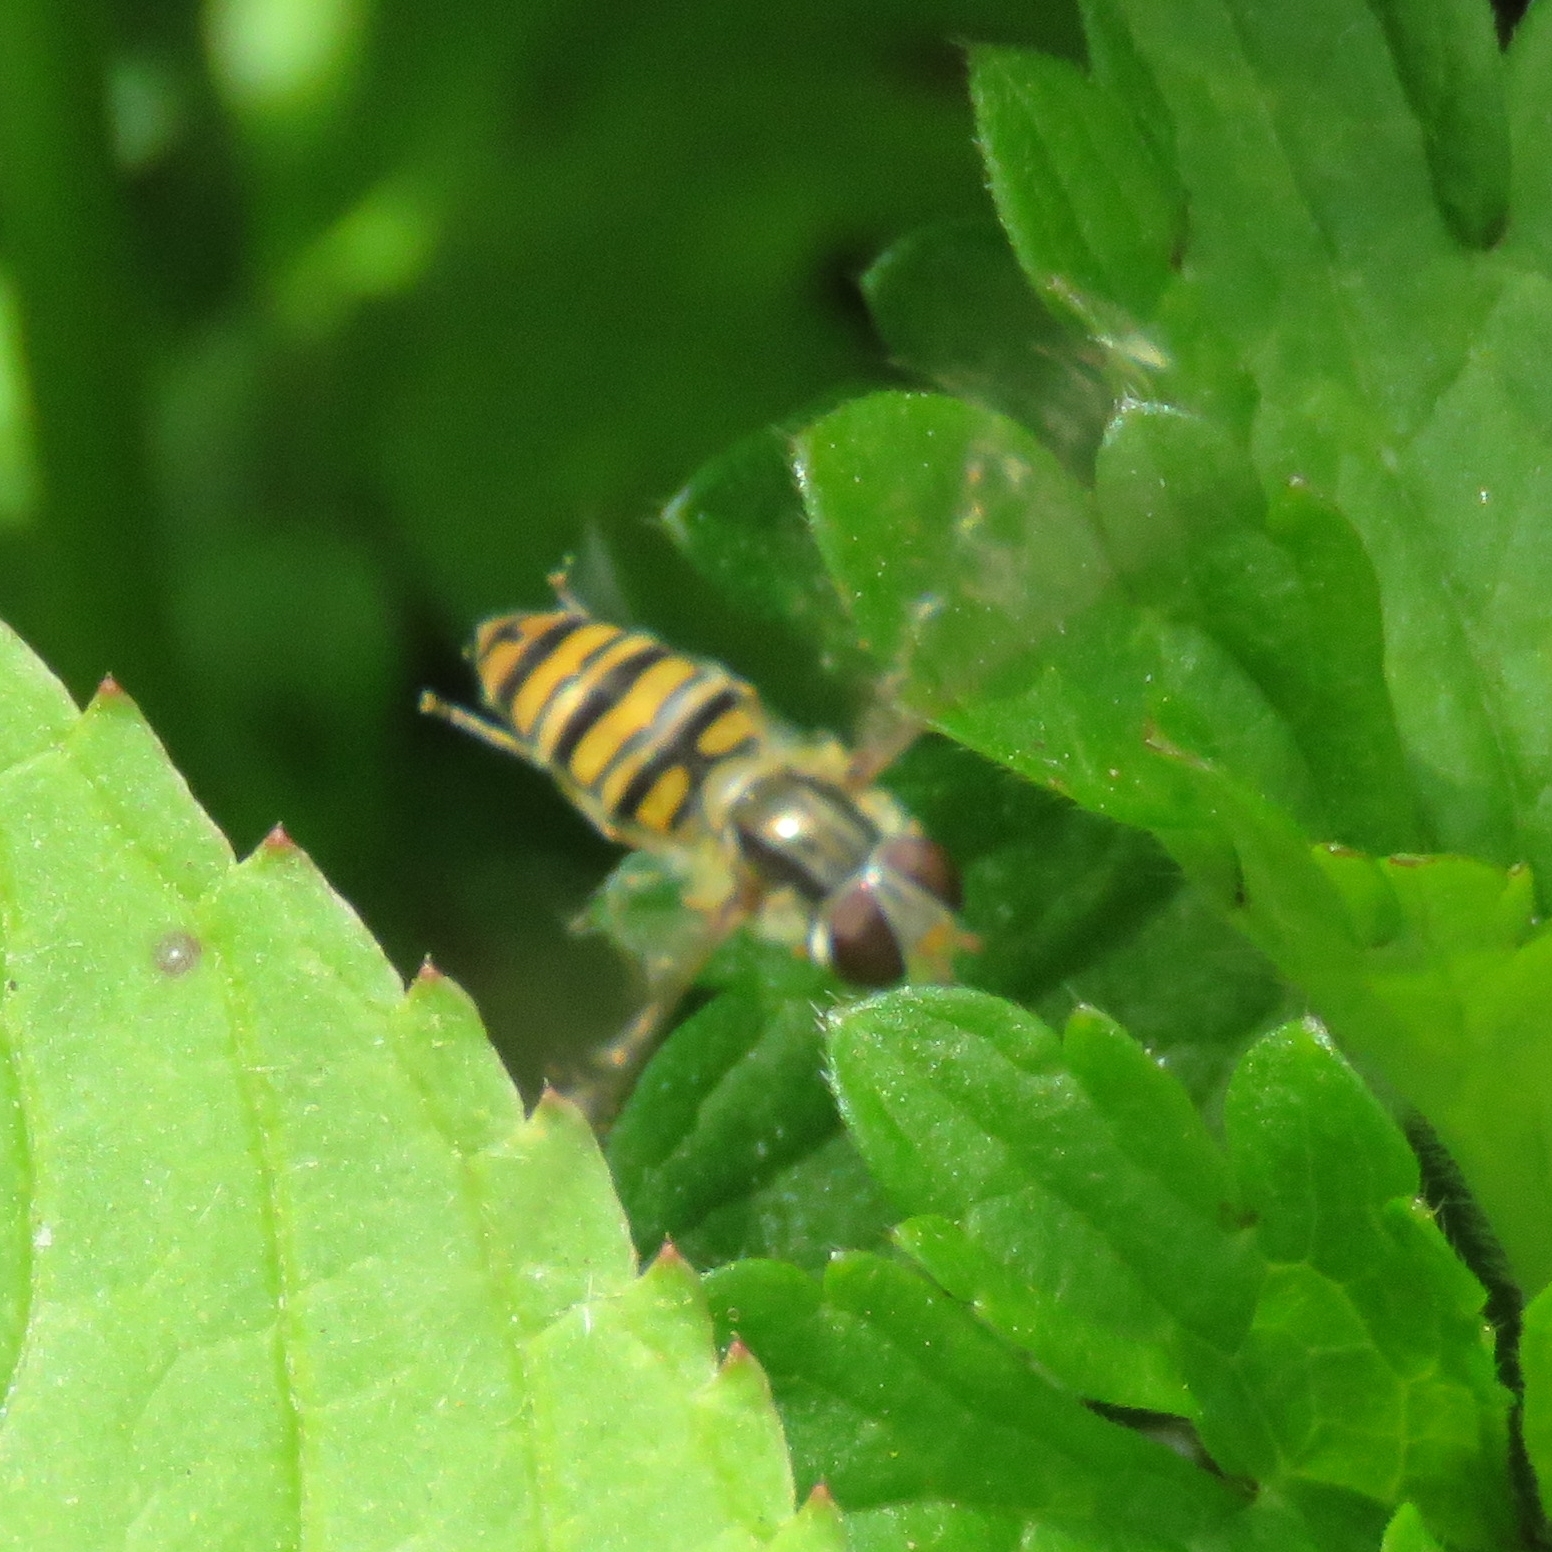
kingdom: Animalia
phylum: Arthropoda
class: Insecta
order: Diptera
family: Syrphidae
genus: Episyrphus
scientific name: Episyrphus balteatus
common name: Marmalade hoverfly
